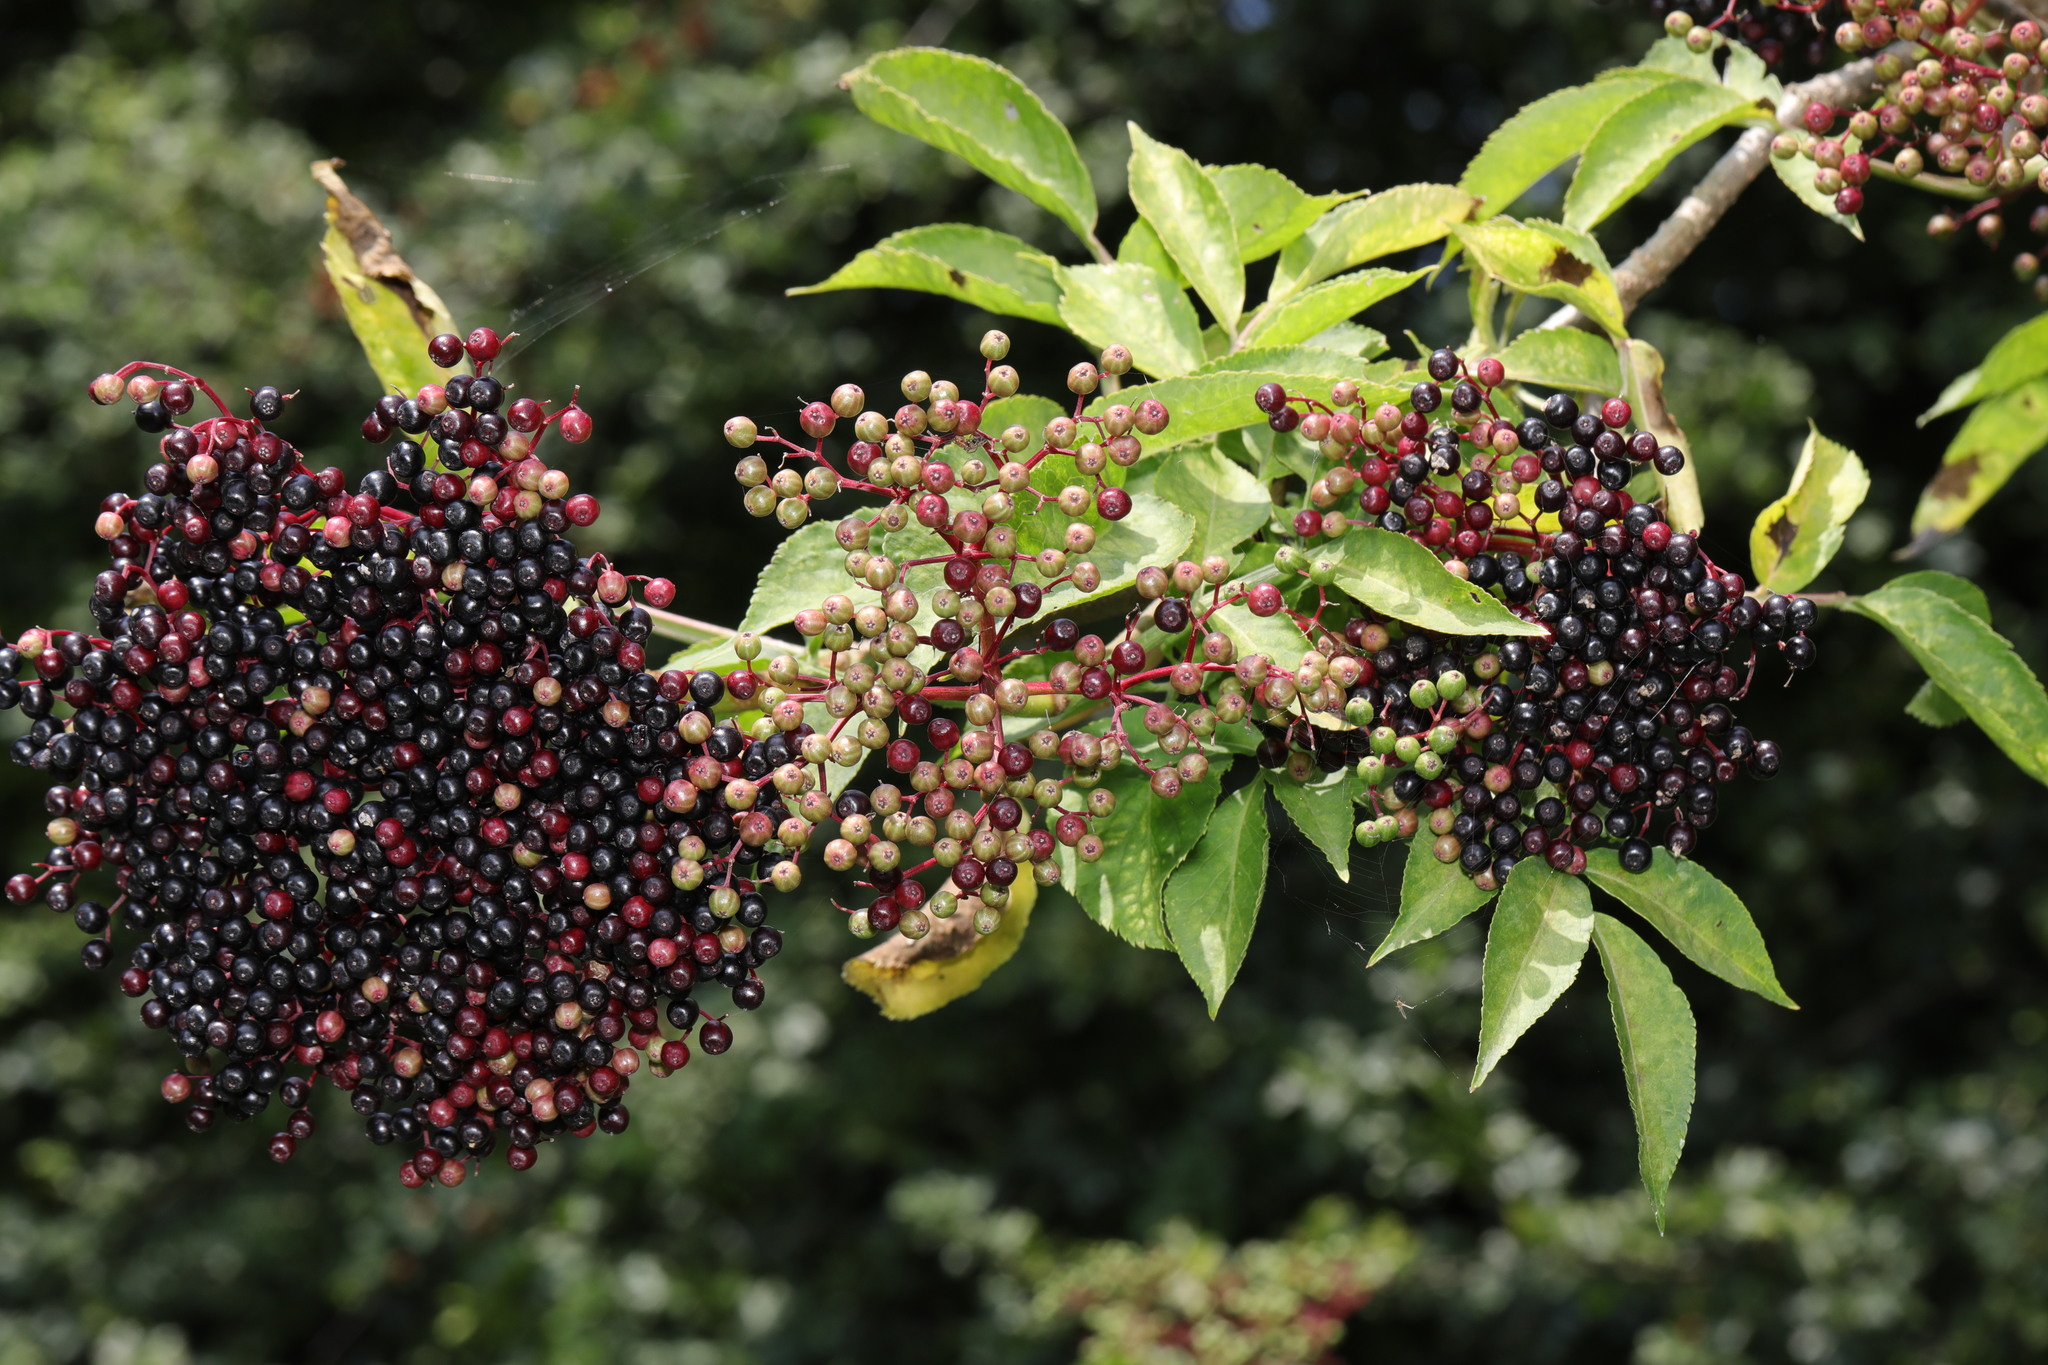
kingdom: Plantae
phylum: Tracheophyta
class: Magnoliopsida
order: Dipsacales
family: Viburnaceae
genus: Sambucus
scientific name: Sambucus nigra
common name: Elder
